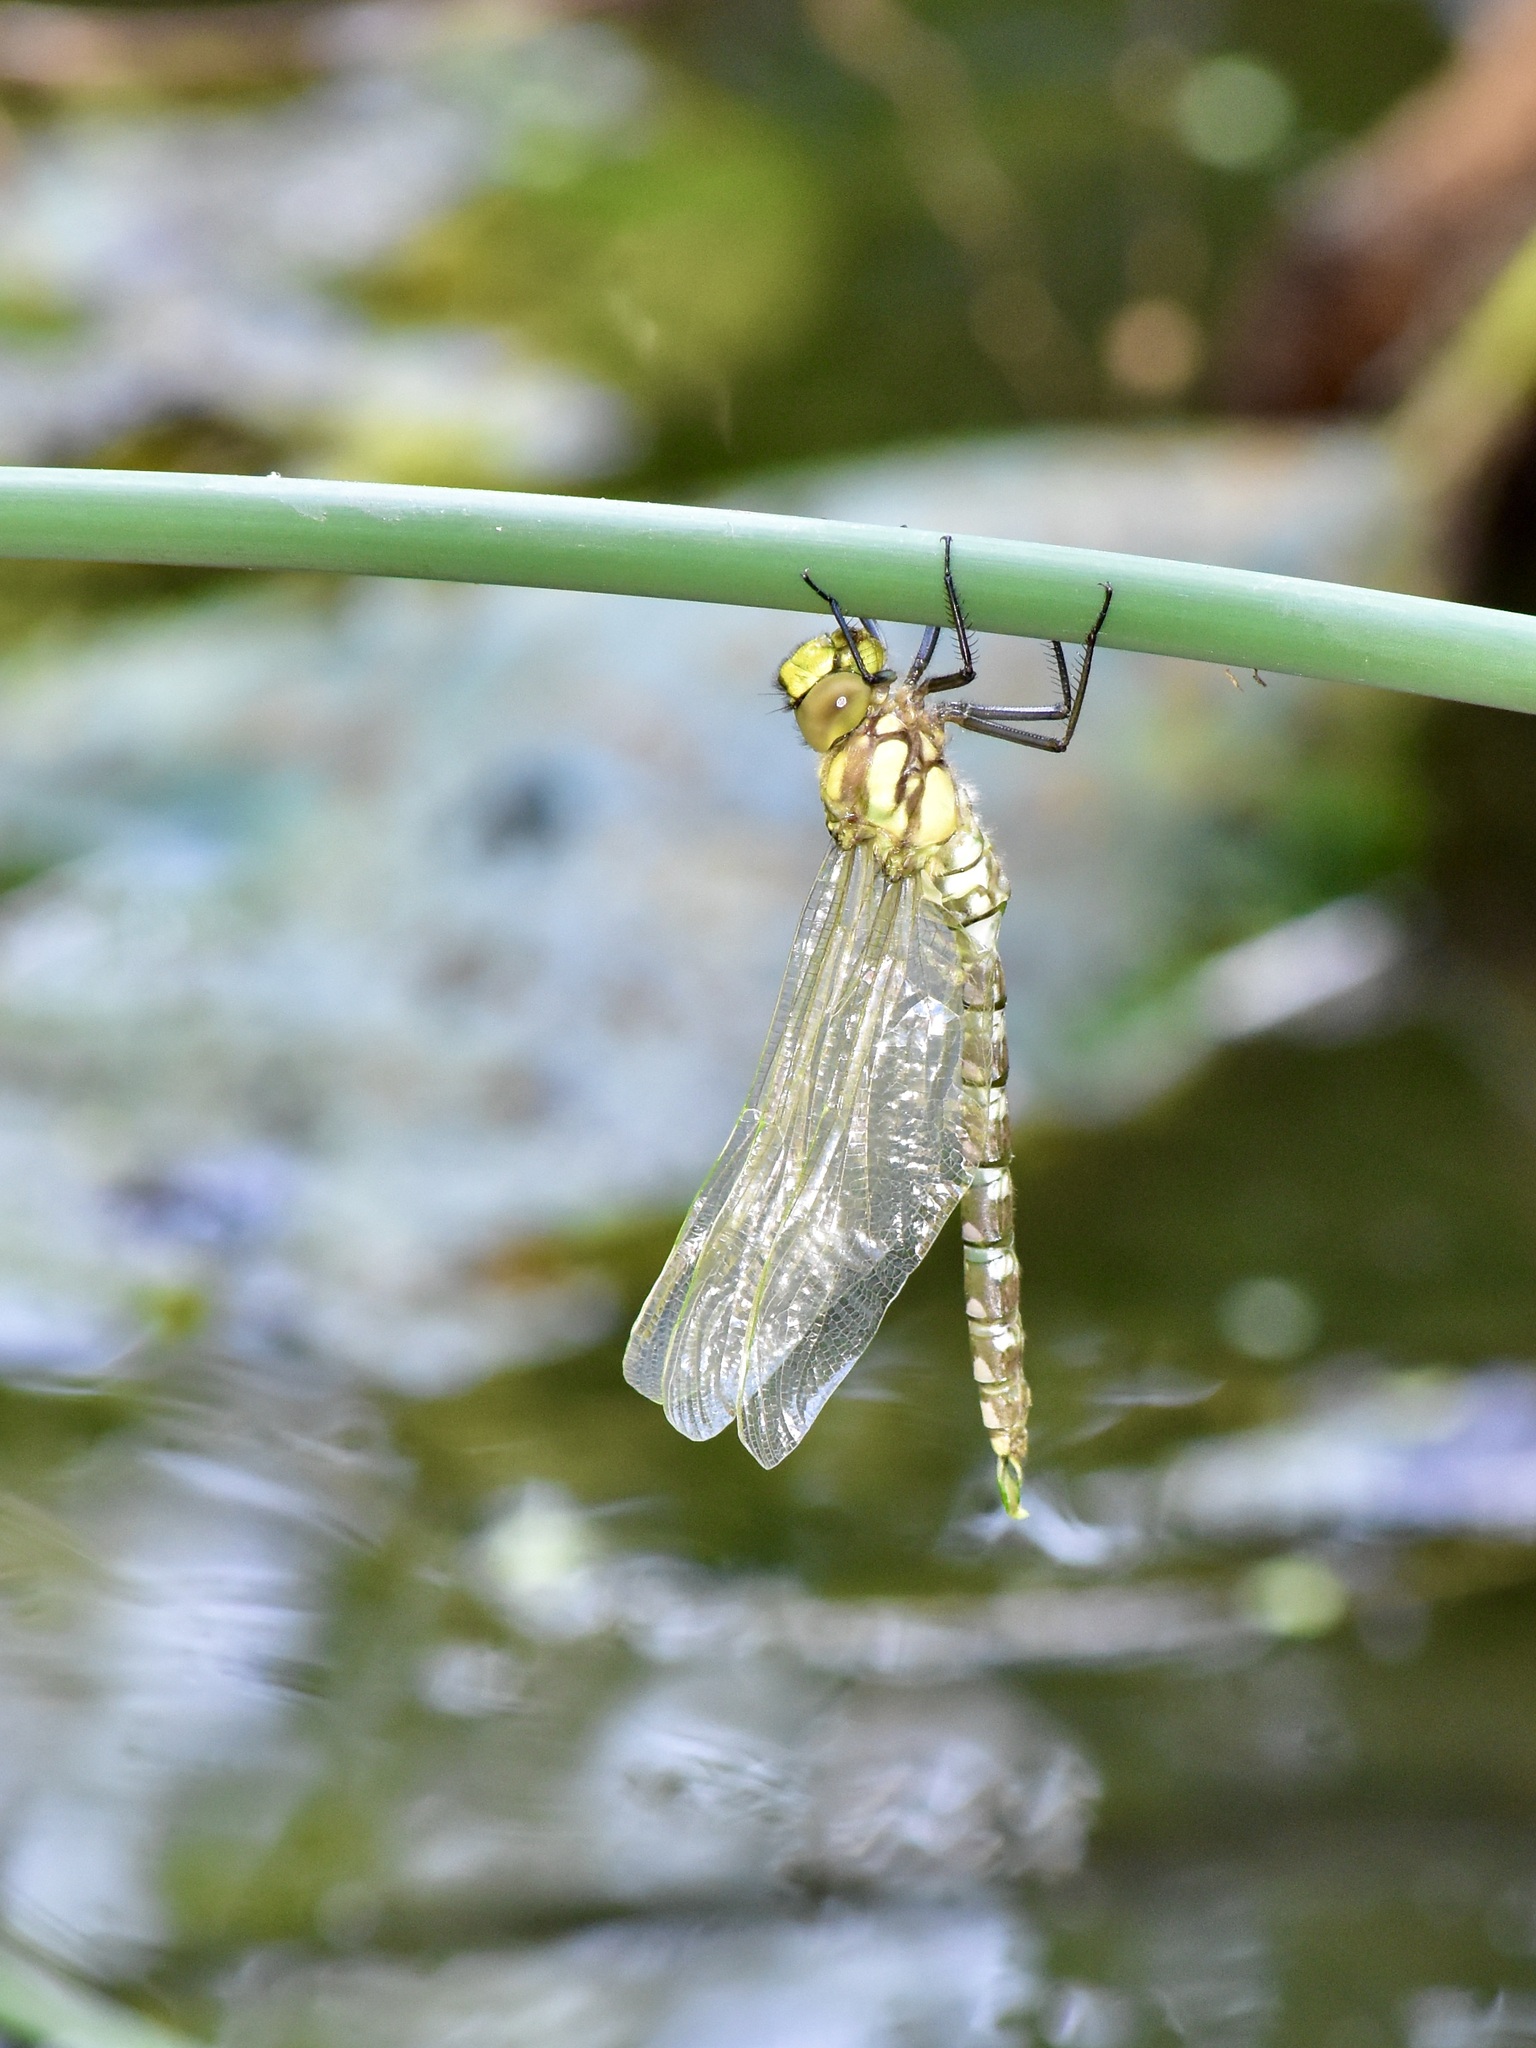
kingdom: Animalia
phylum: Arthropoda
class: Insecta
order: Odonata
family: Aeshnidae
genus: Aeshna
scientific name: Aeshna cyanea
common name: Southern hawker
